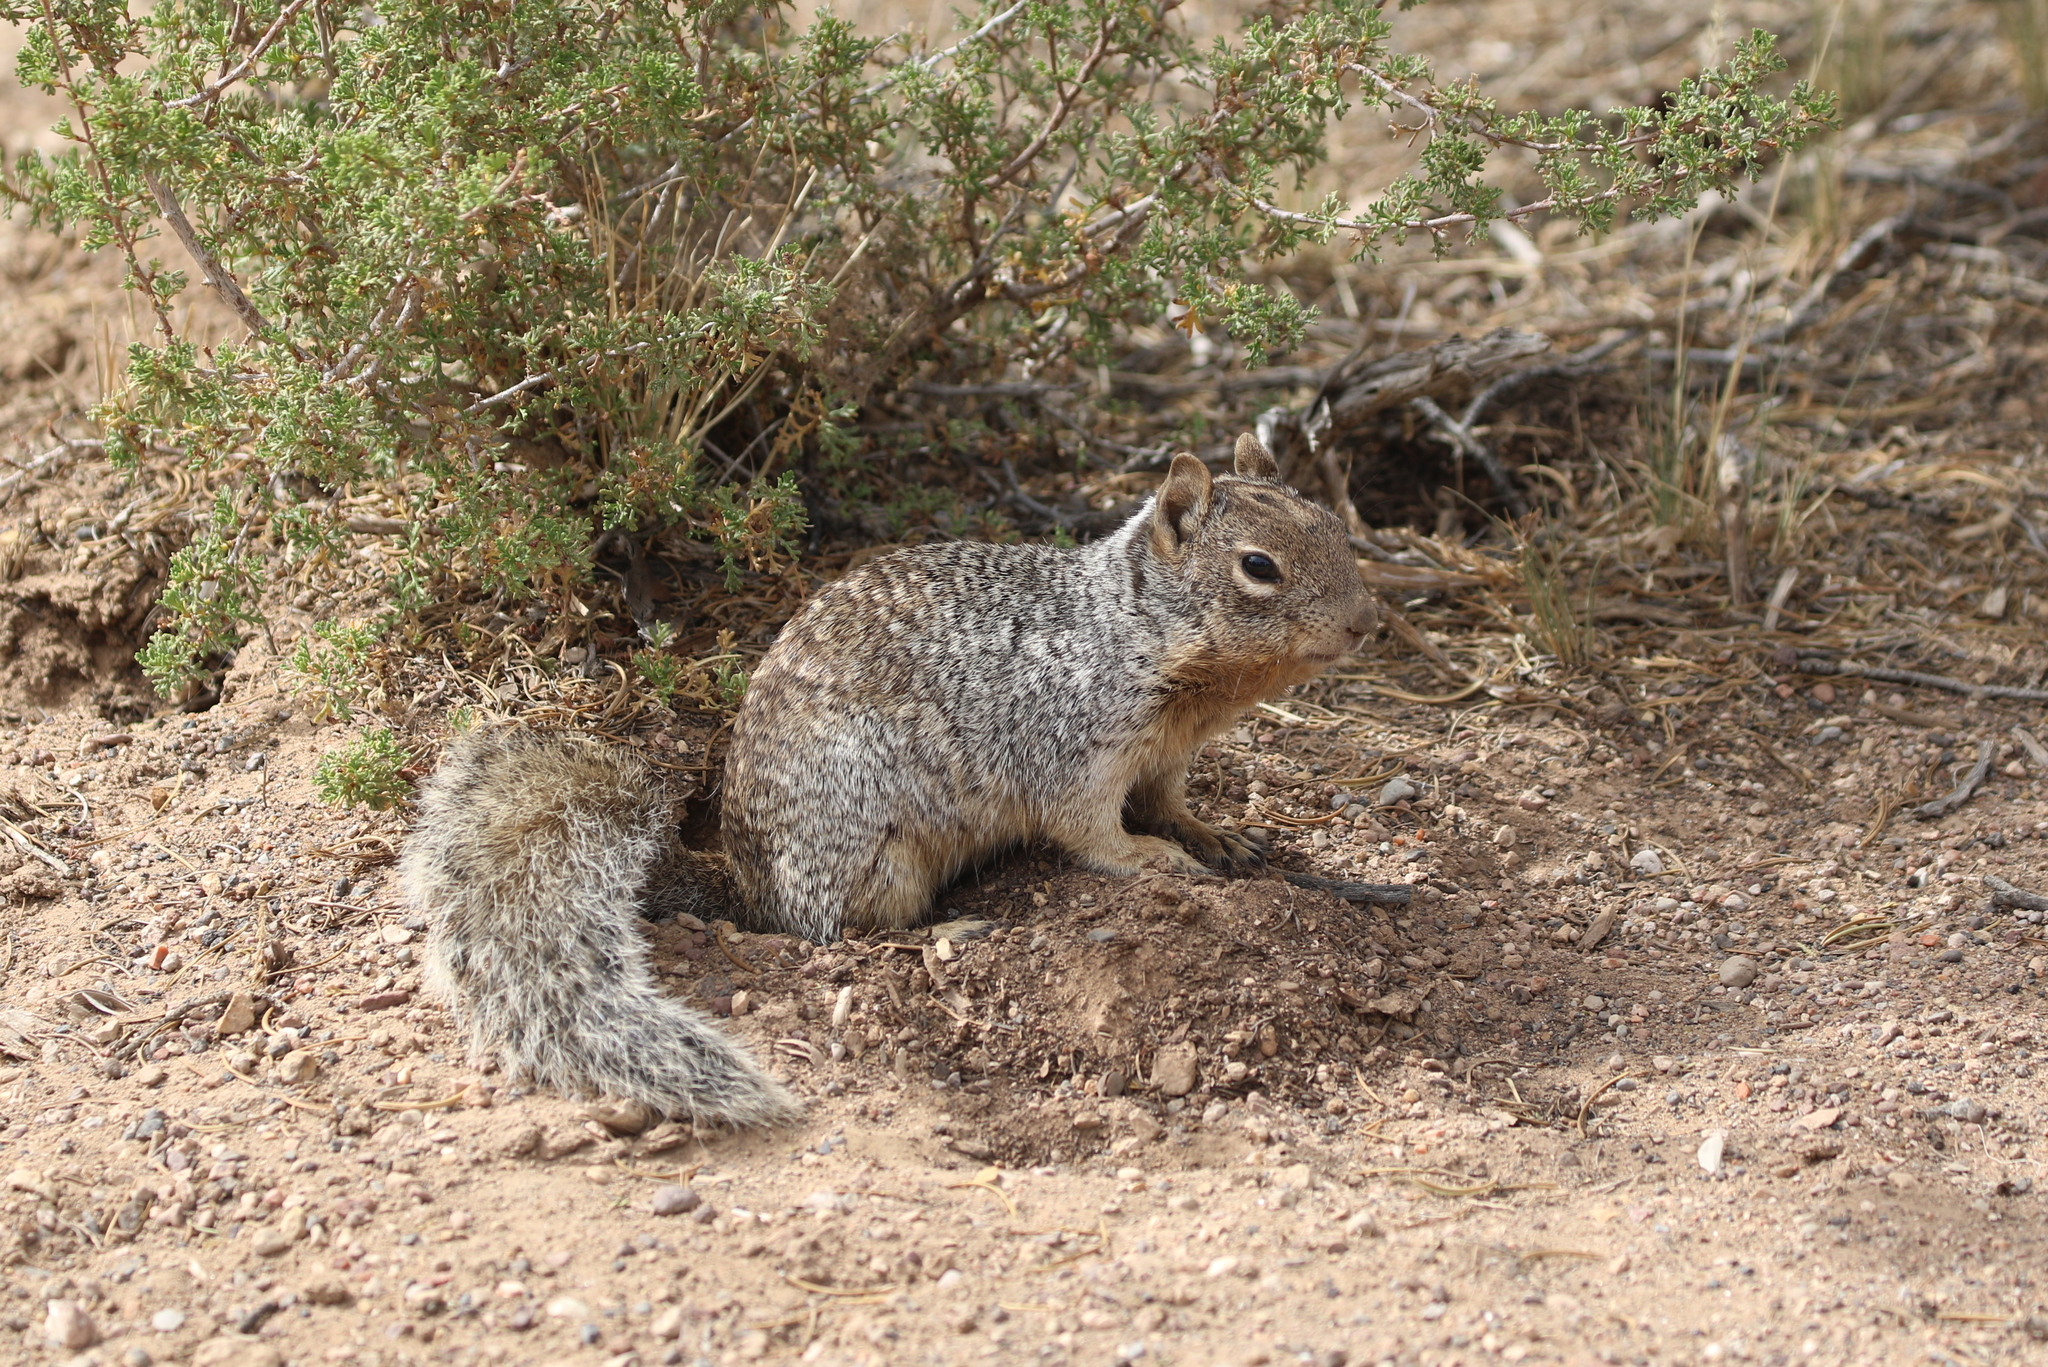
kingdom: Animalia
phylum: Chordata
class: Mammalia
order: Rodentia
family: Sciuridae
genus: Otospermophilus
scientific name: Otospermophilus variegatus
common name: Rock squirrel
